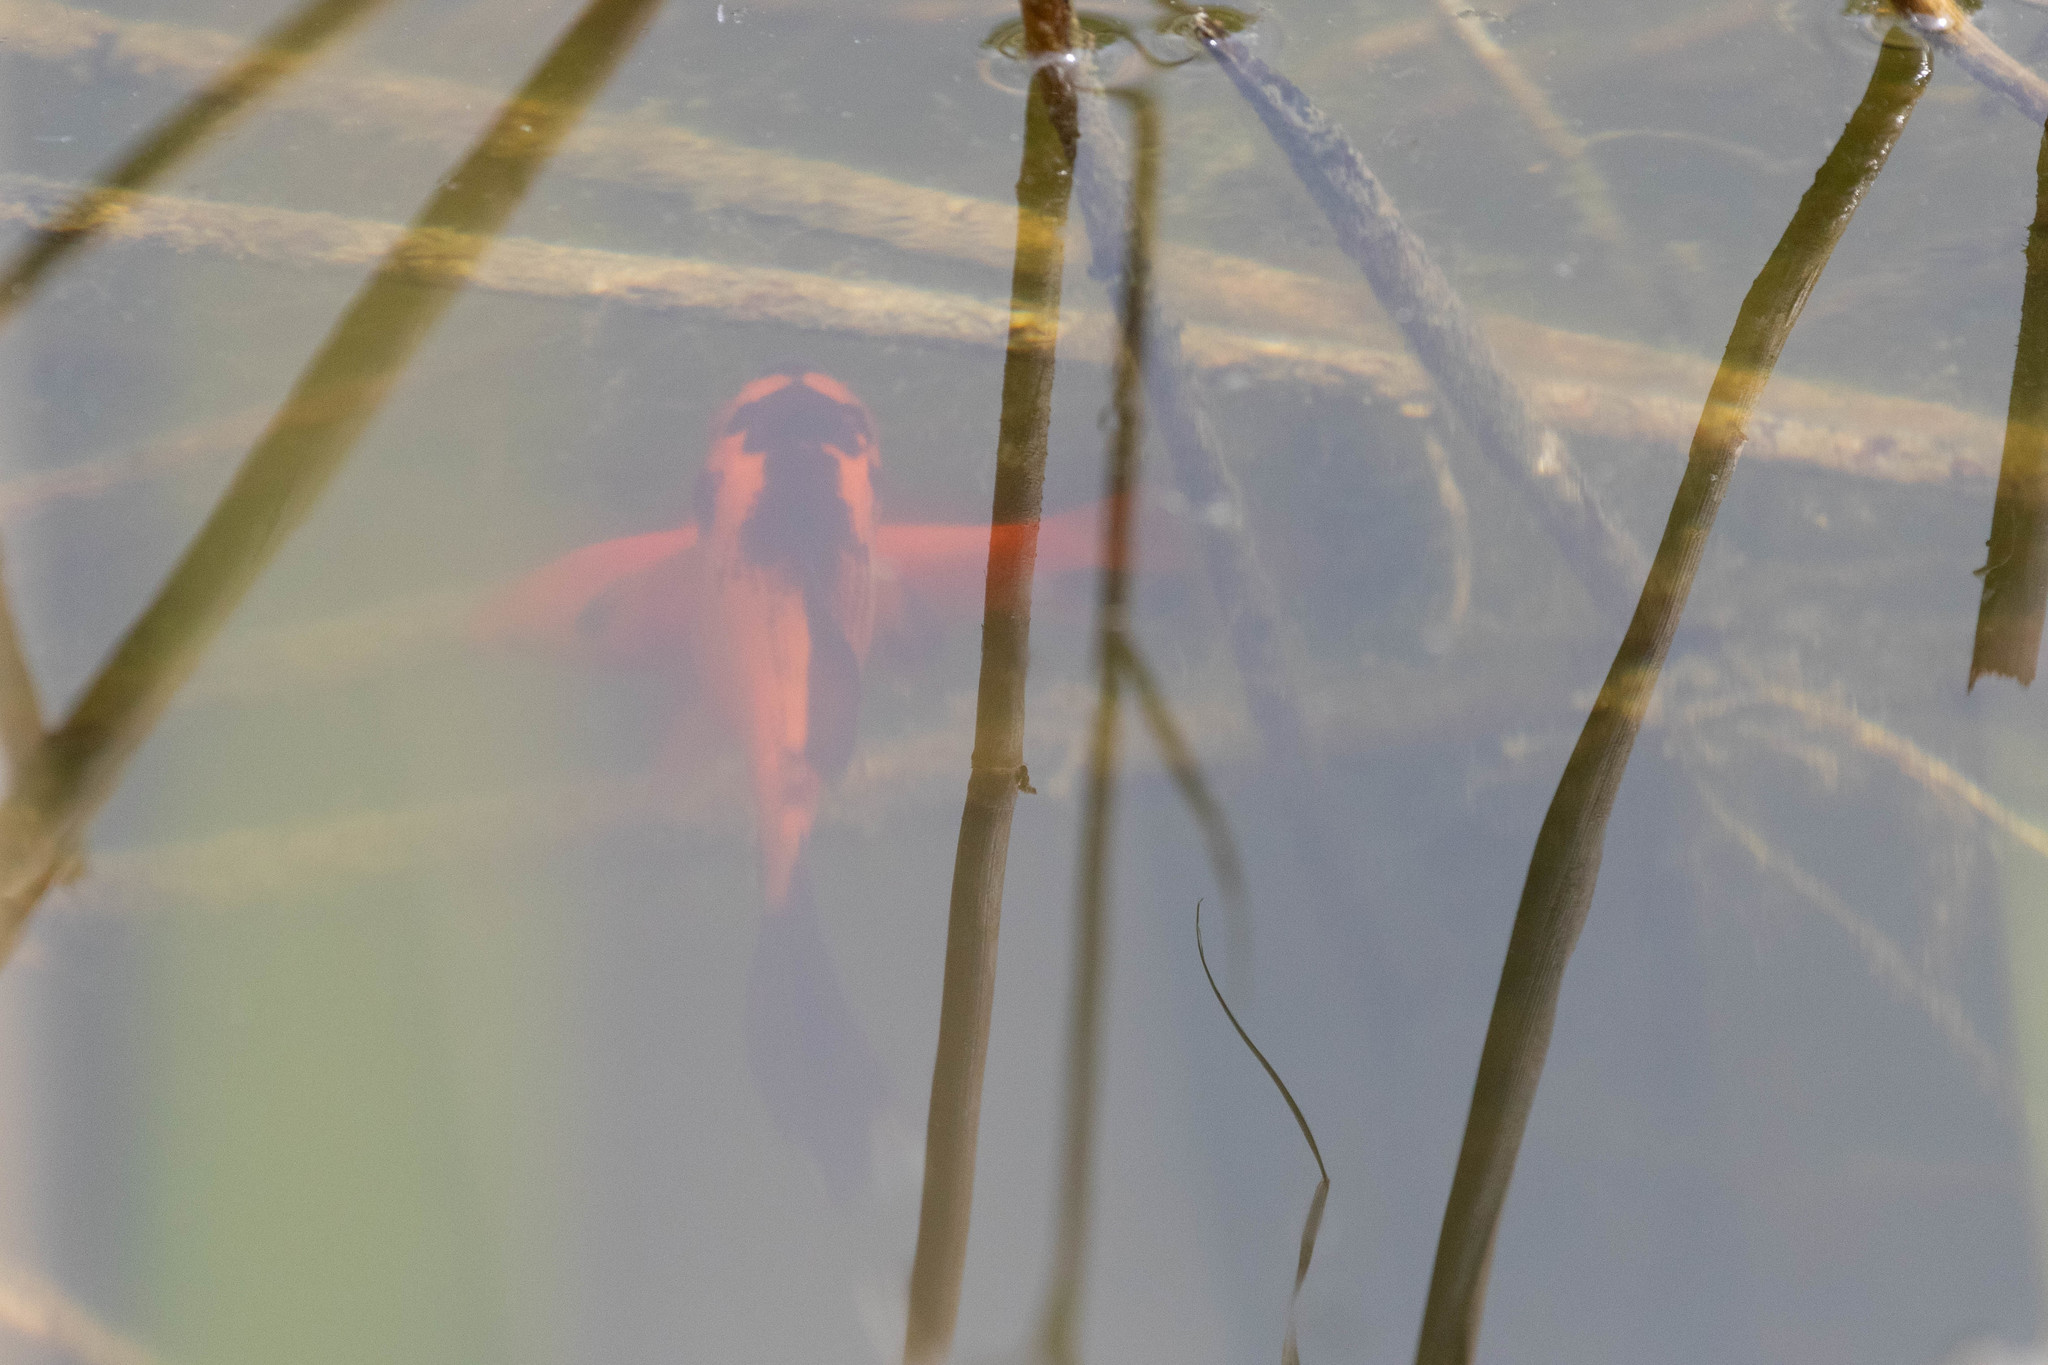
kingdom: Animalia
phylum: Chordata
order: Cypriniformes
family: Cyprinidae
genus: Carassius
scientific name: Carassius auratus
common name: Goldfish
